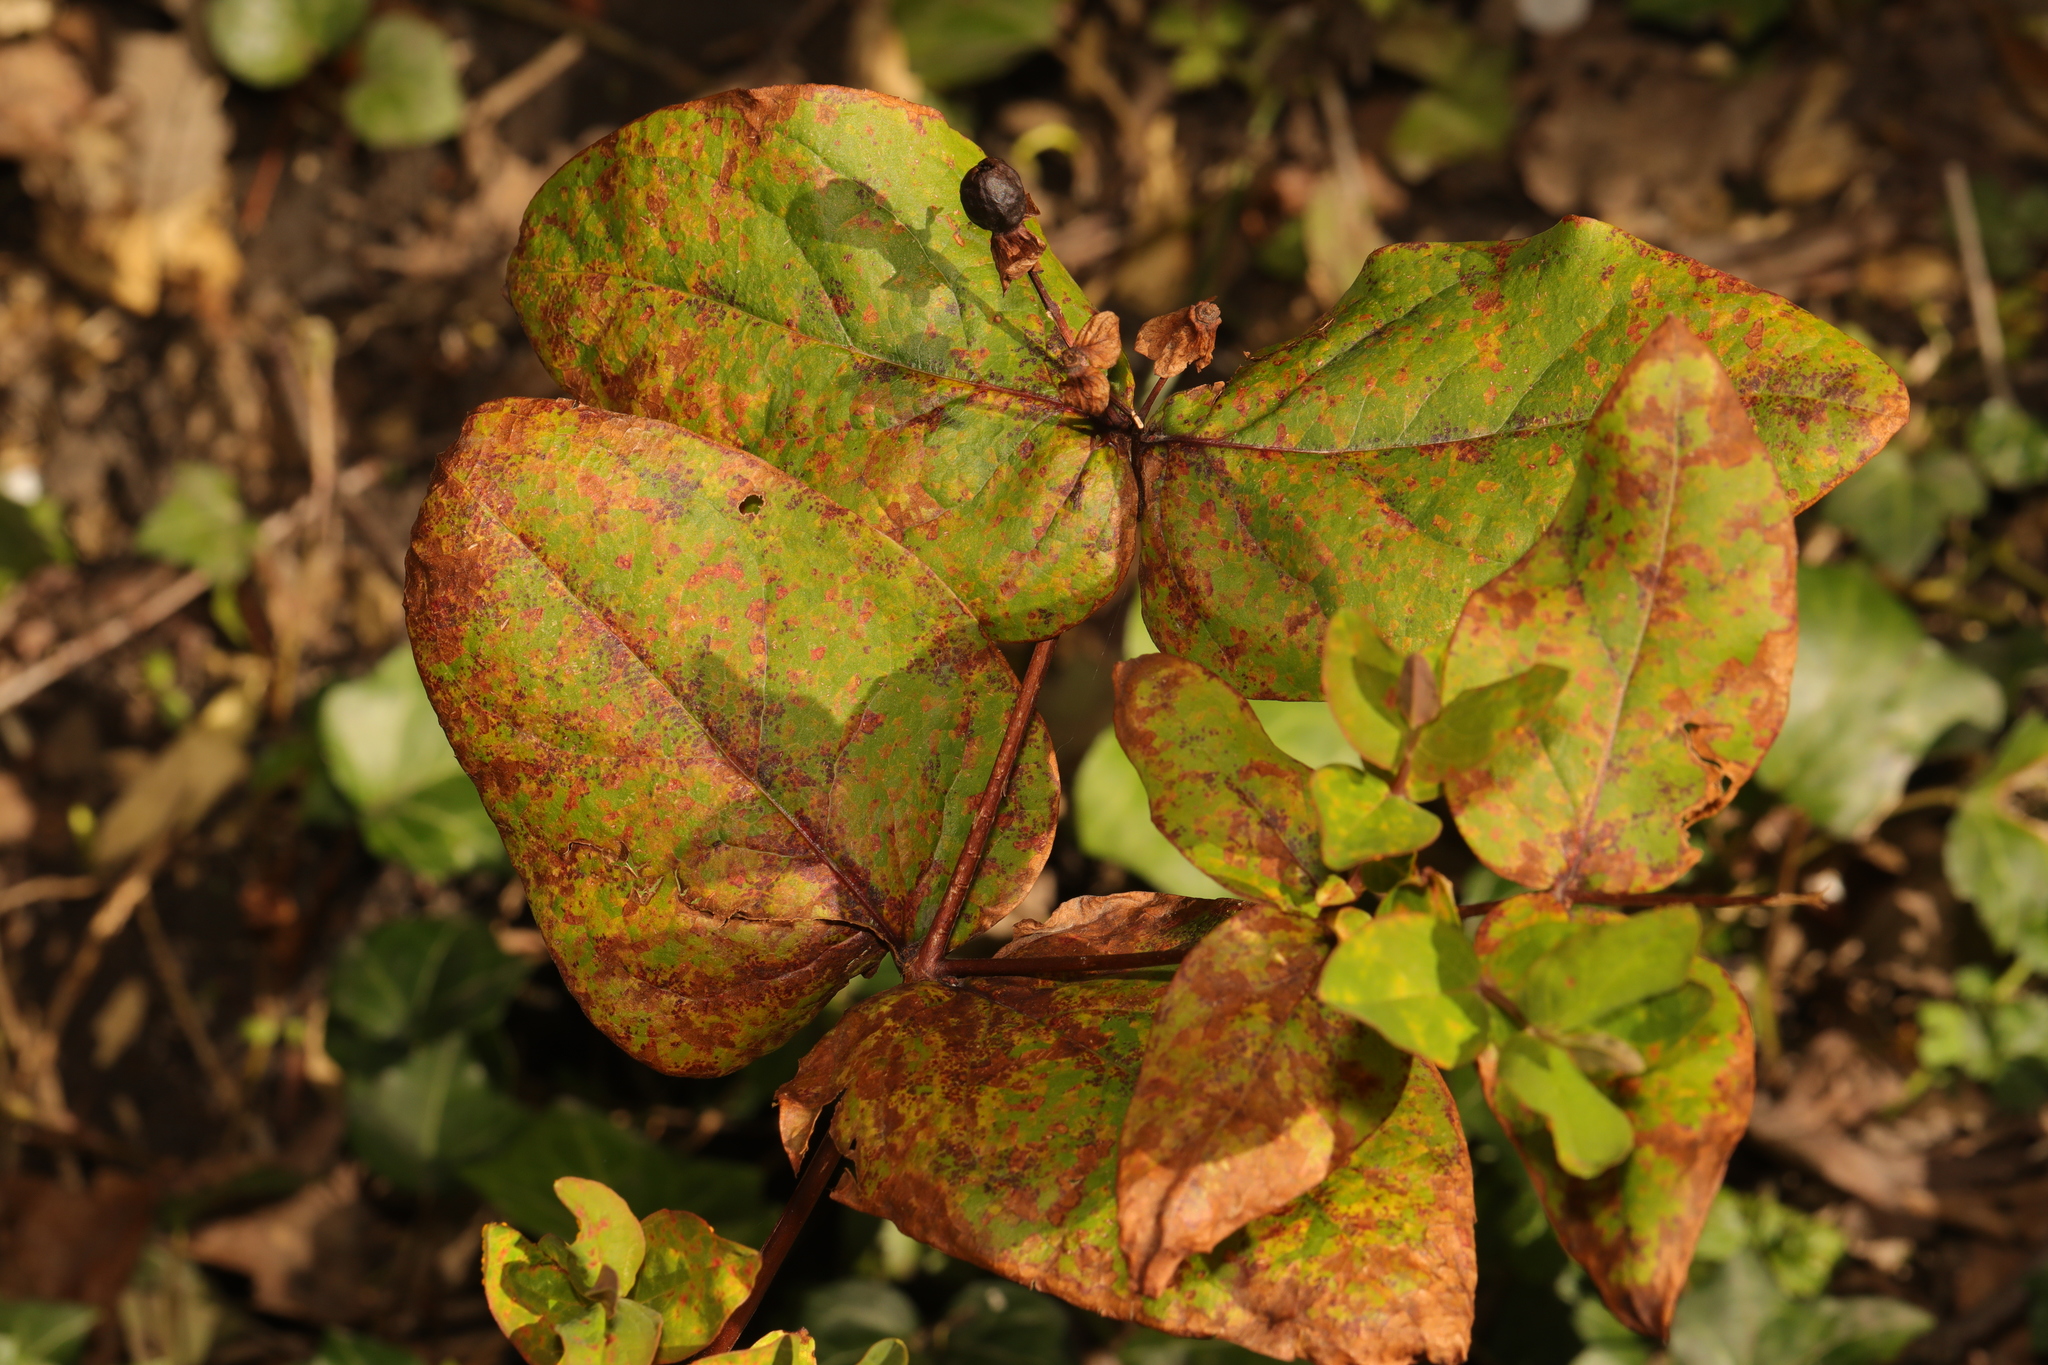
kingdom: Plantae
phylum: Tracheophyta
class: Magnoliopsida
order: Malpighiales
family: Hypericaceae
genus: Hypericum
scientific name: Hypericum androsaemum
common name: Sweet-amber
